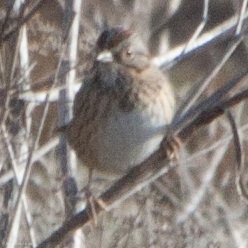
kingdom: Animalia
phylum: Chordata
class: Aves
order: Passeriformes
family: Passerellidae
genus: Melospiza
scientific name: Melospiza lincolnii
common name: Lincoln's sparrow
